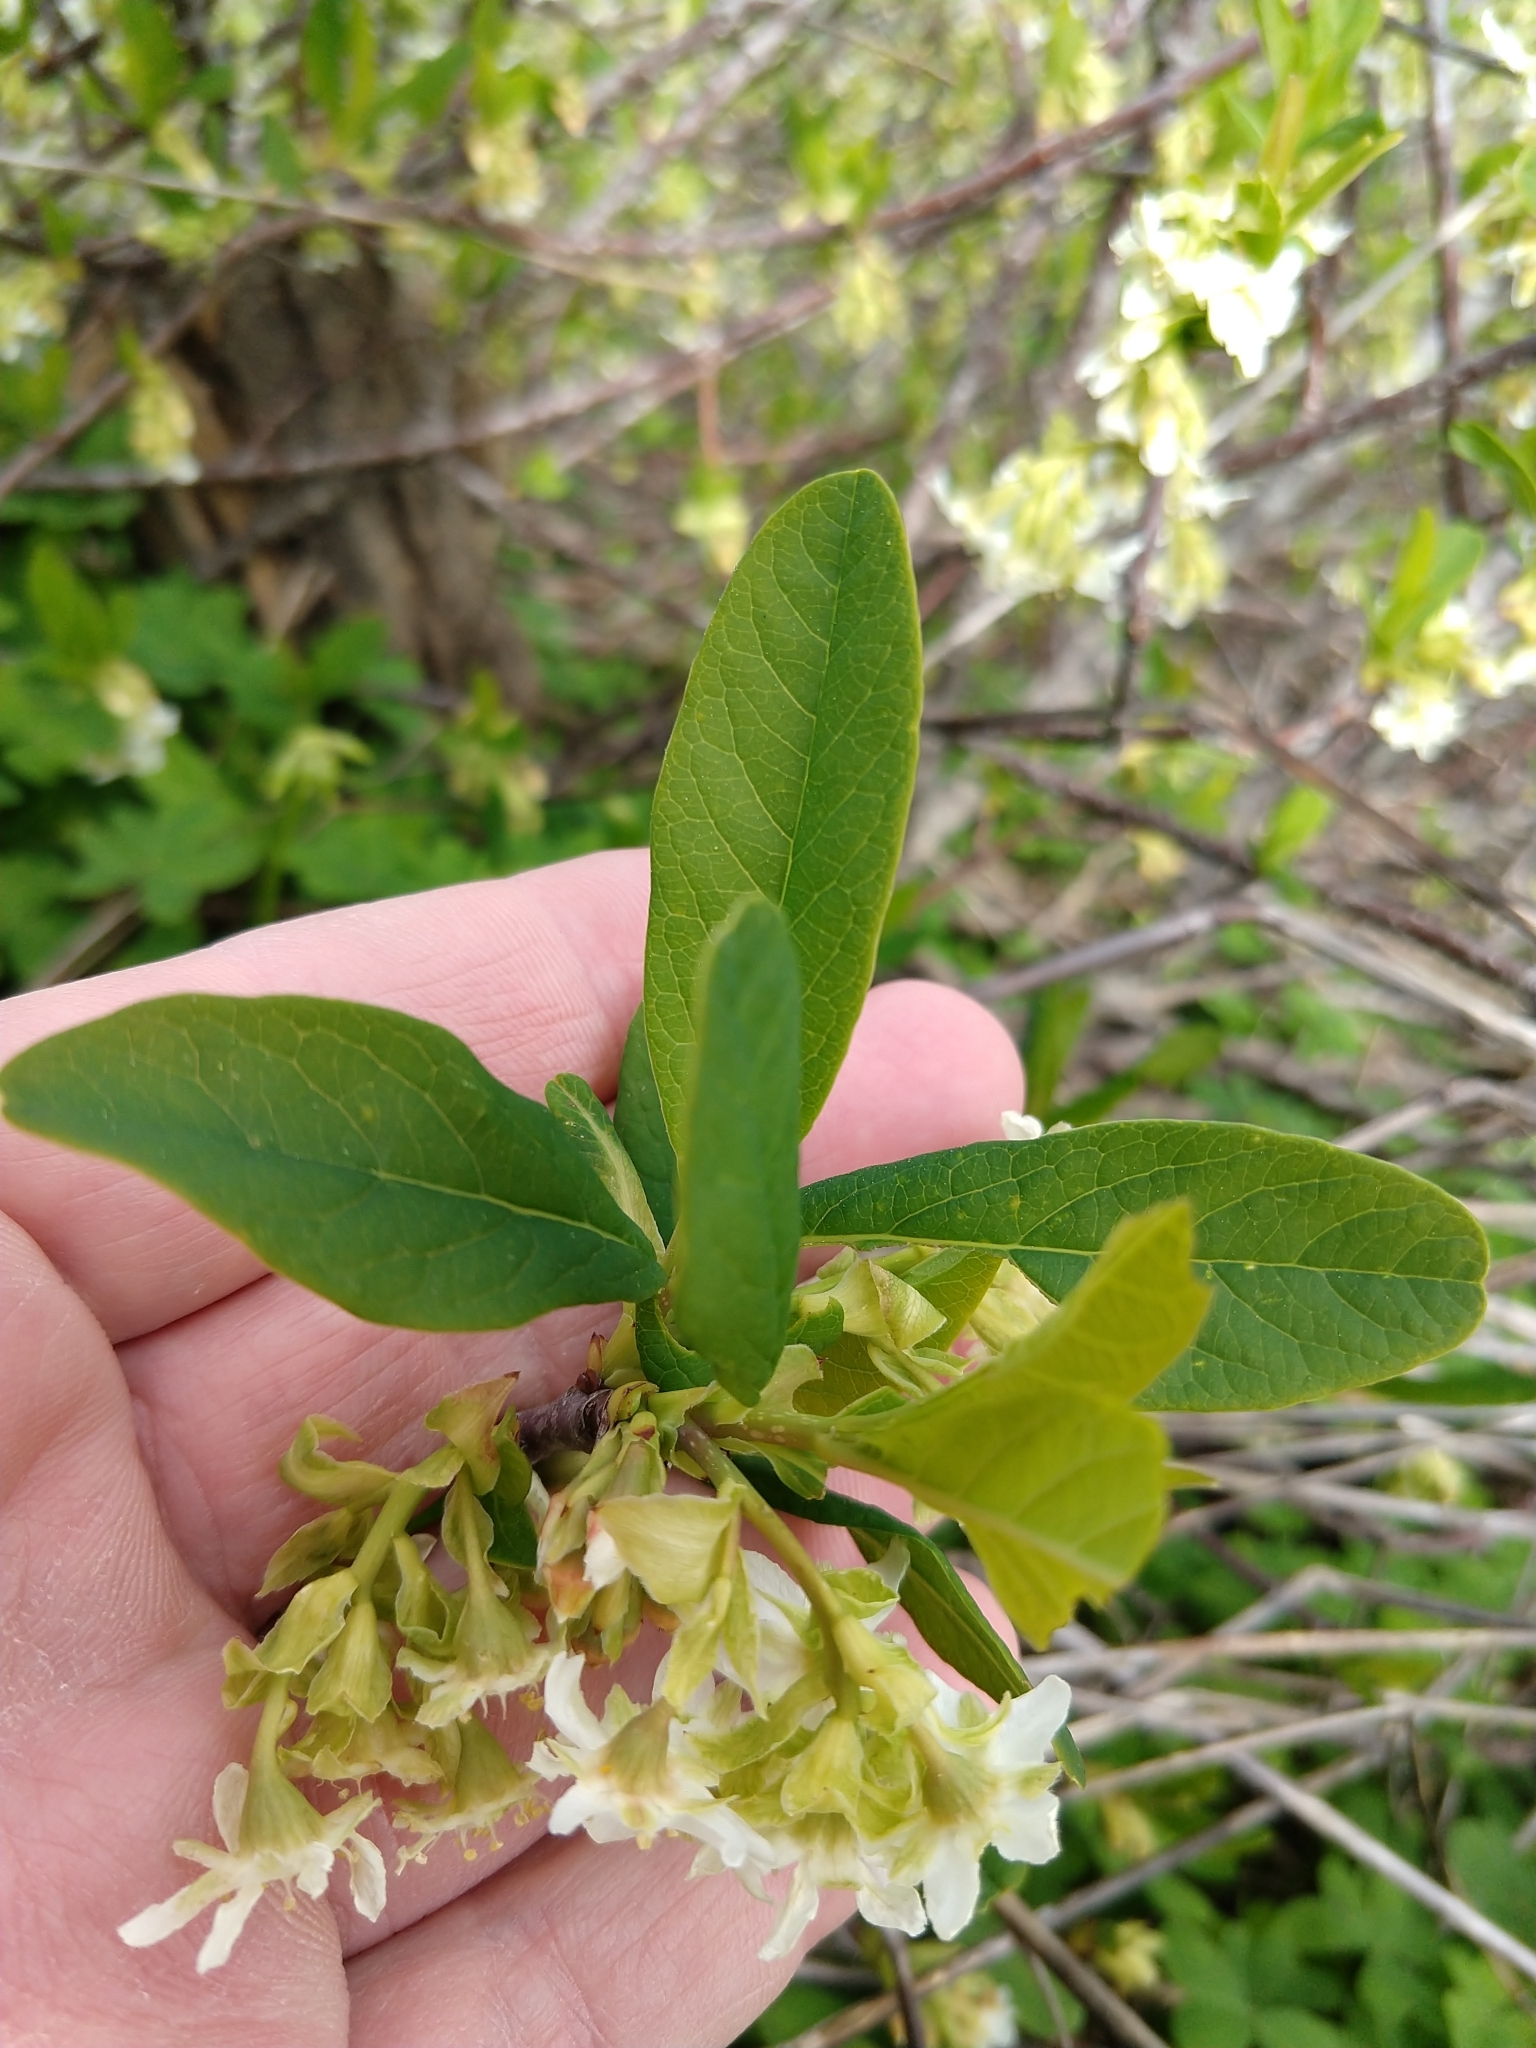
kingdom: Plantae
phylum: Tracheophyta
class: Magnoliopsida
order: Rosales
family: Rosaceae
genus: Oemleria
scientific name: Oemleria cerasiformis
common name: Osoberry
